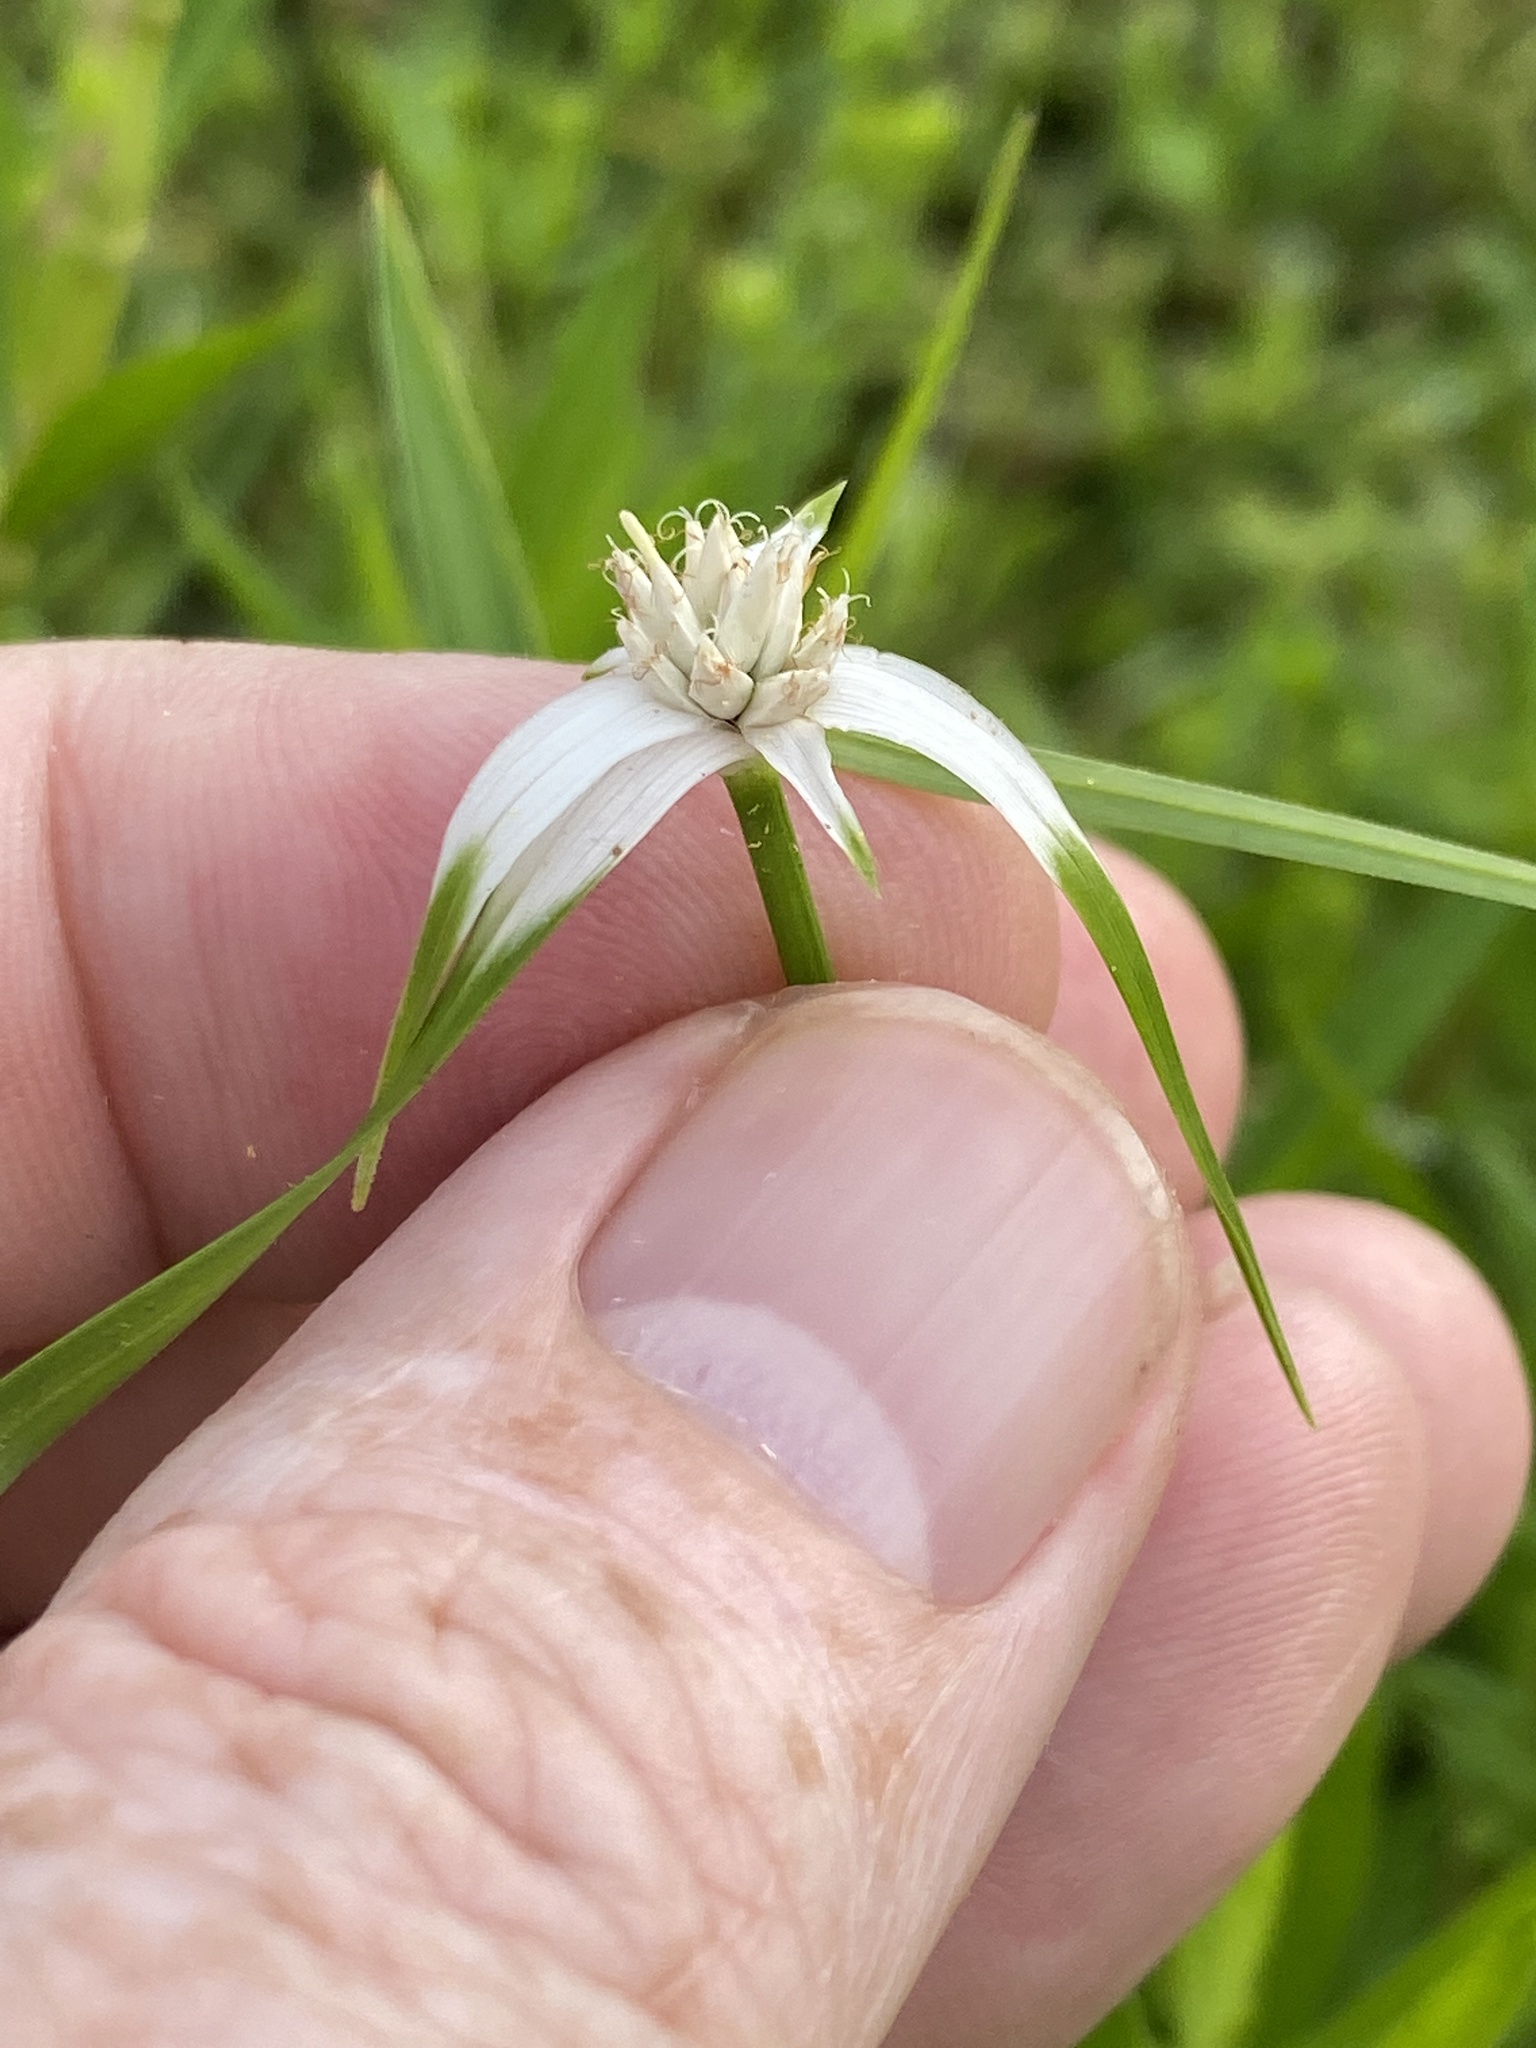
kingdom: Plantae
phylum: Tracheophyta
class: Liliopsida
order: Poales
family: Cyperaceae
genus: Rhynchospora
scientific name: Rhynchospora colorata
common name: Star sedge
